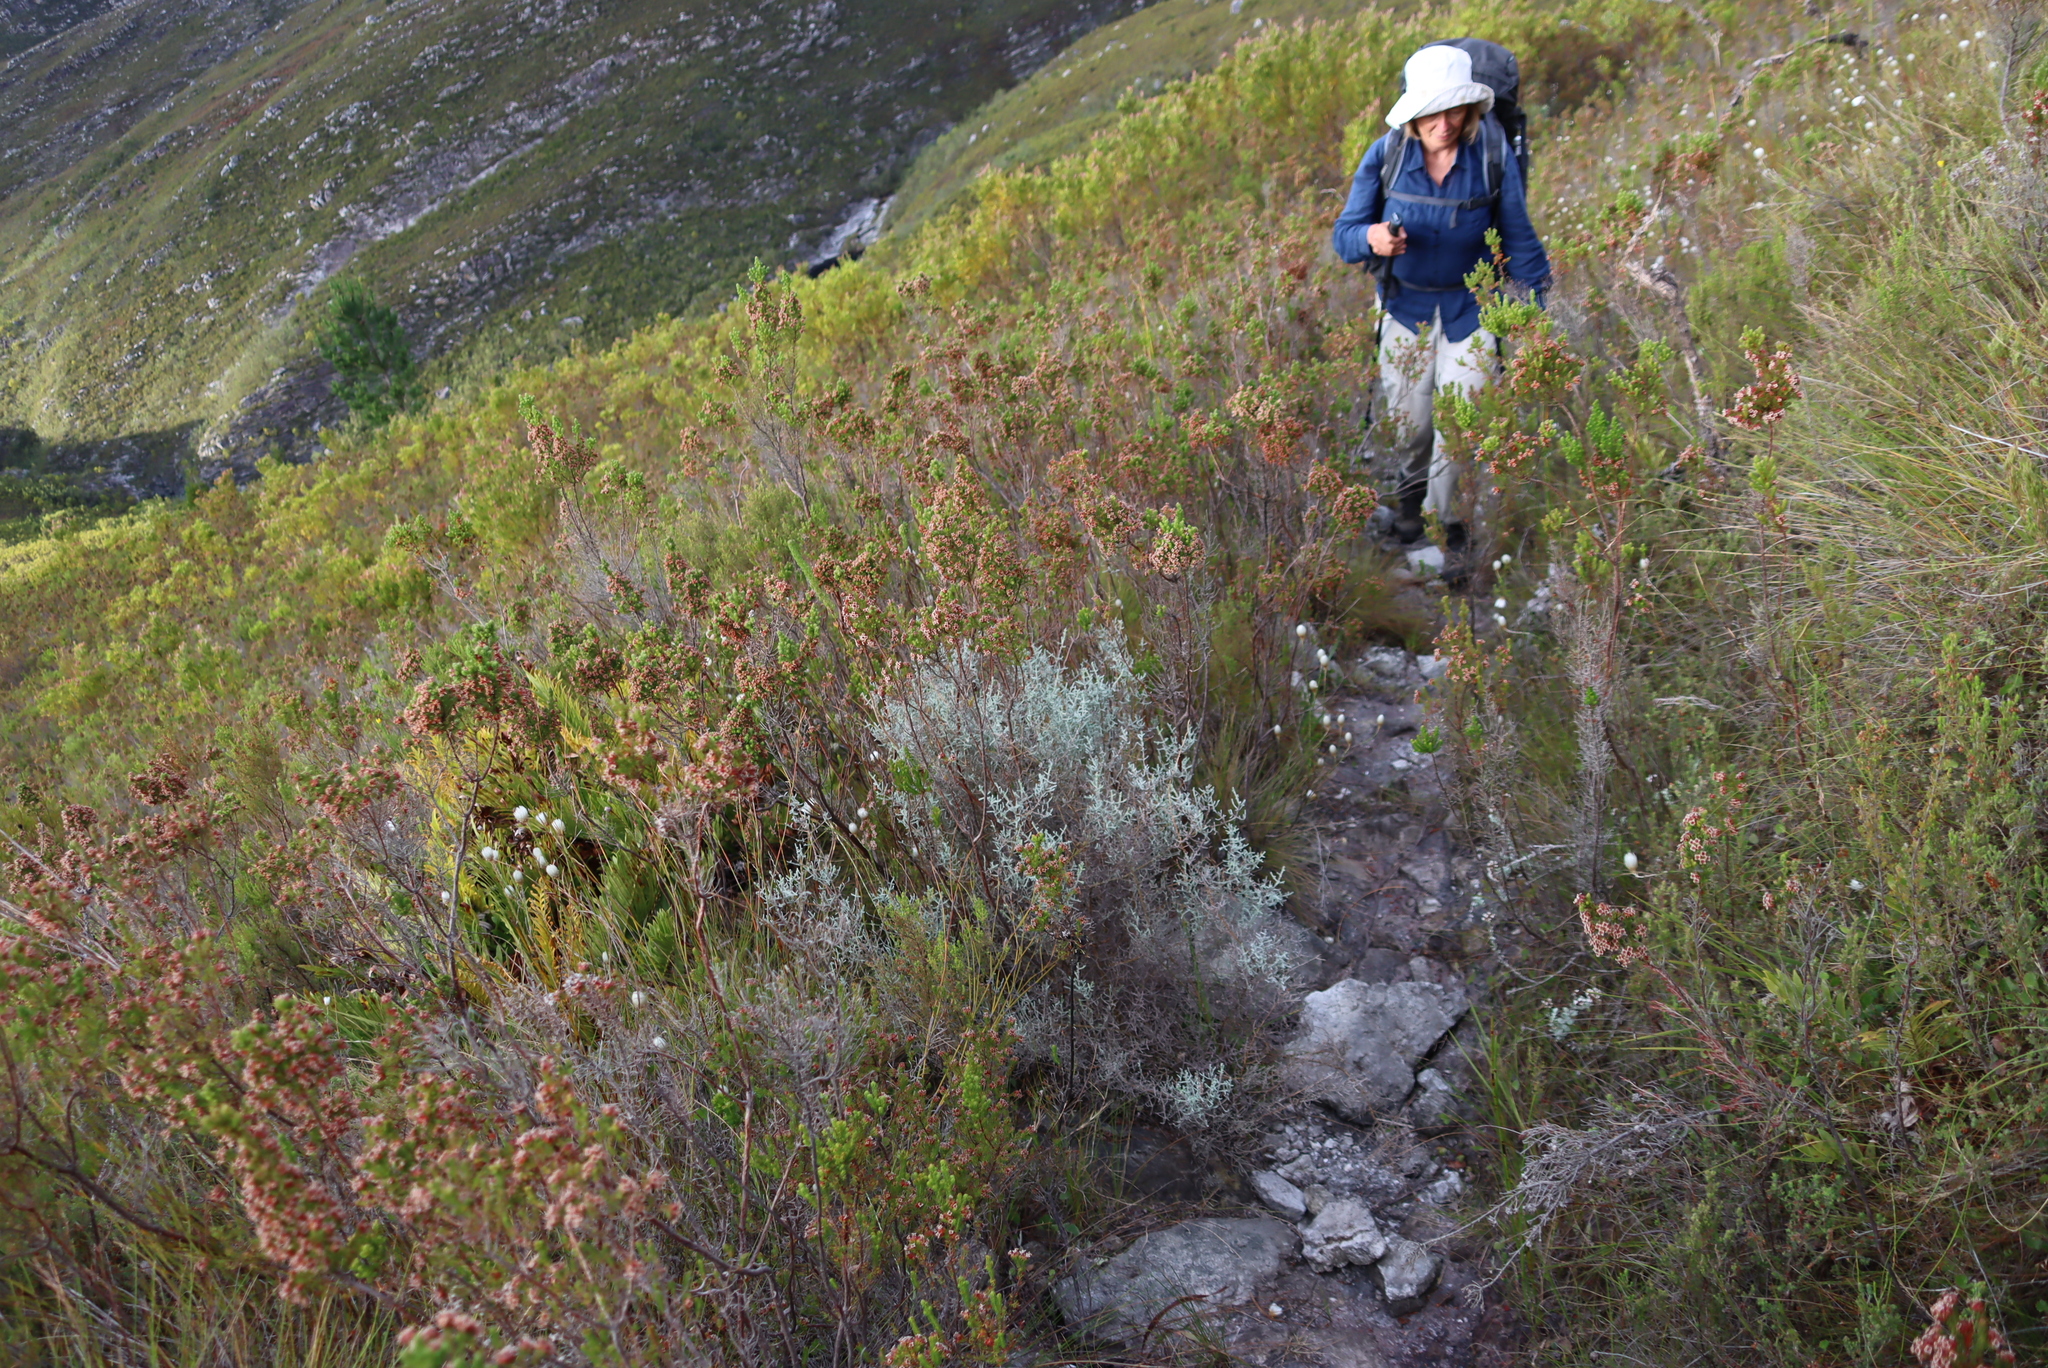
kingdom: Plantae
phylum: Tracheophyta
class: Magnoliopsida
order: Asterales
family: Asteraceae
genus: Seriphium
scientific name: Seriphium plumosum
